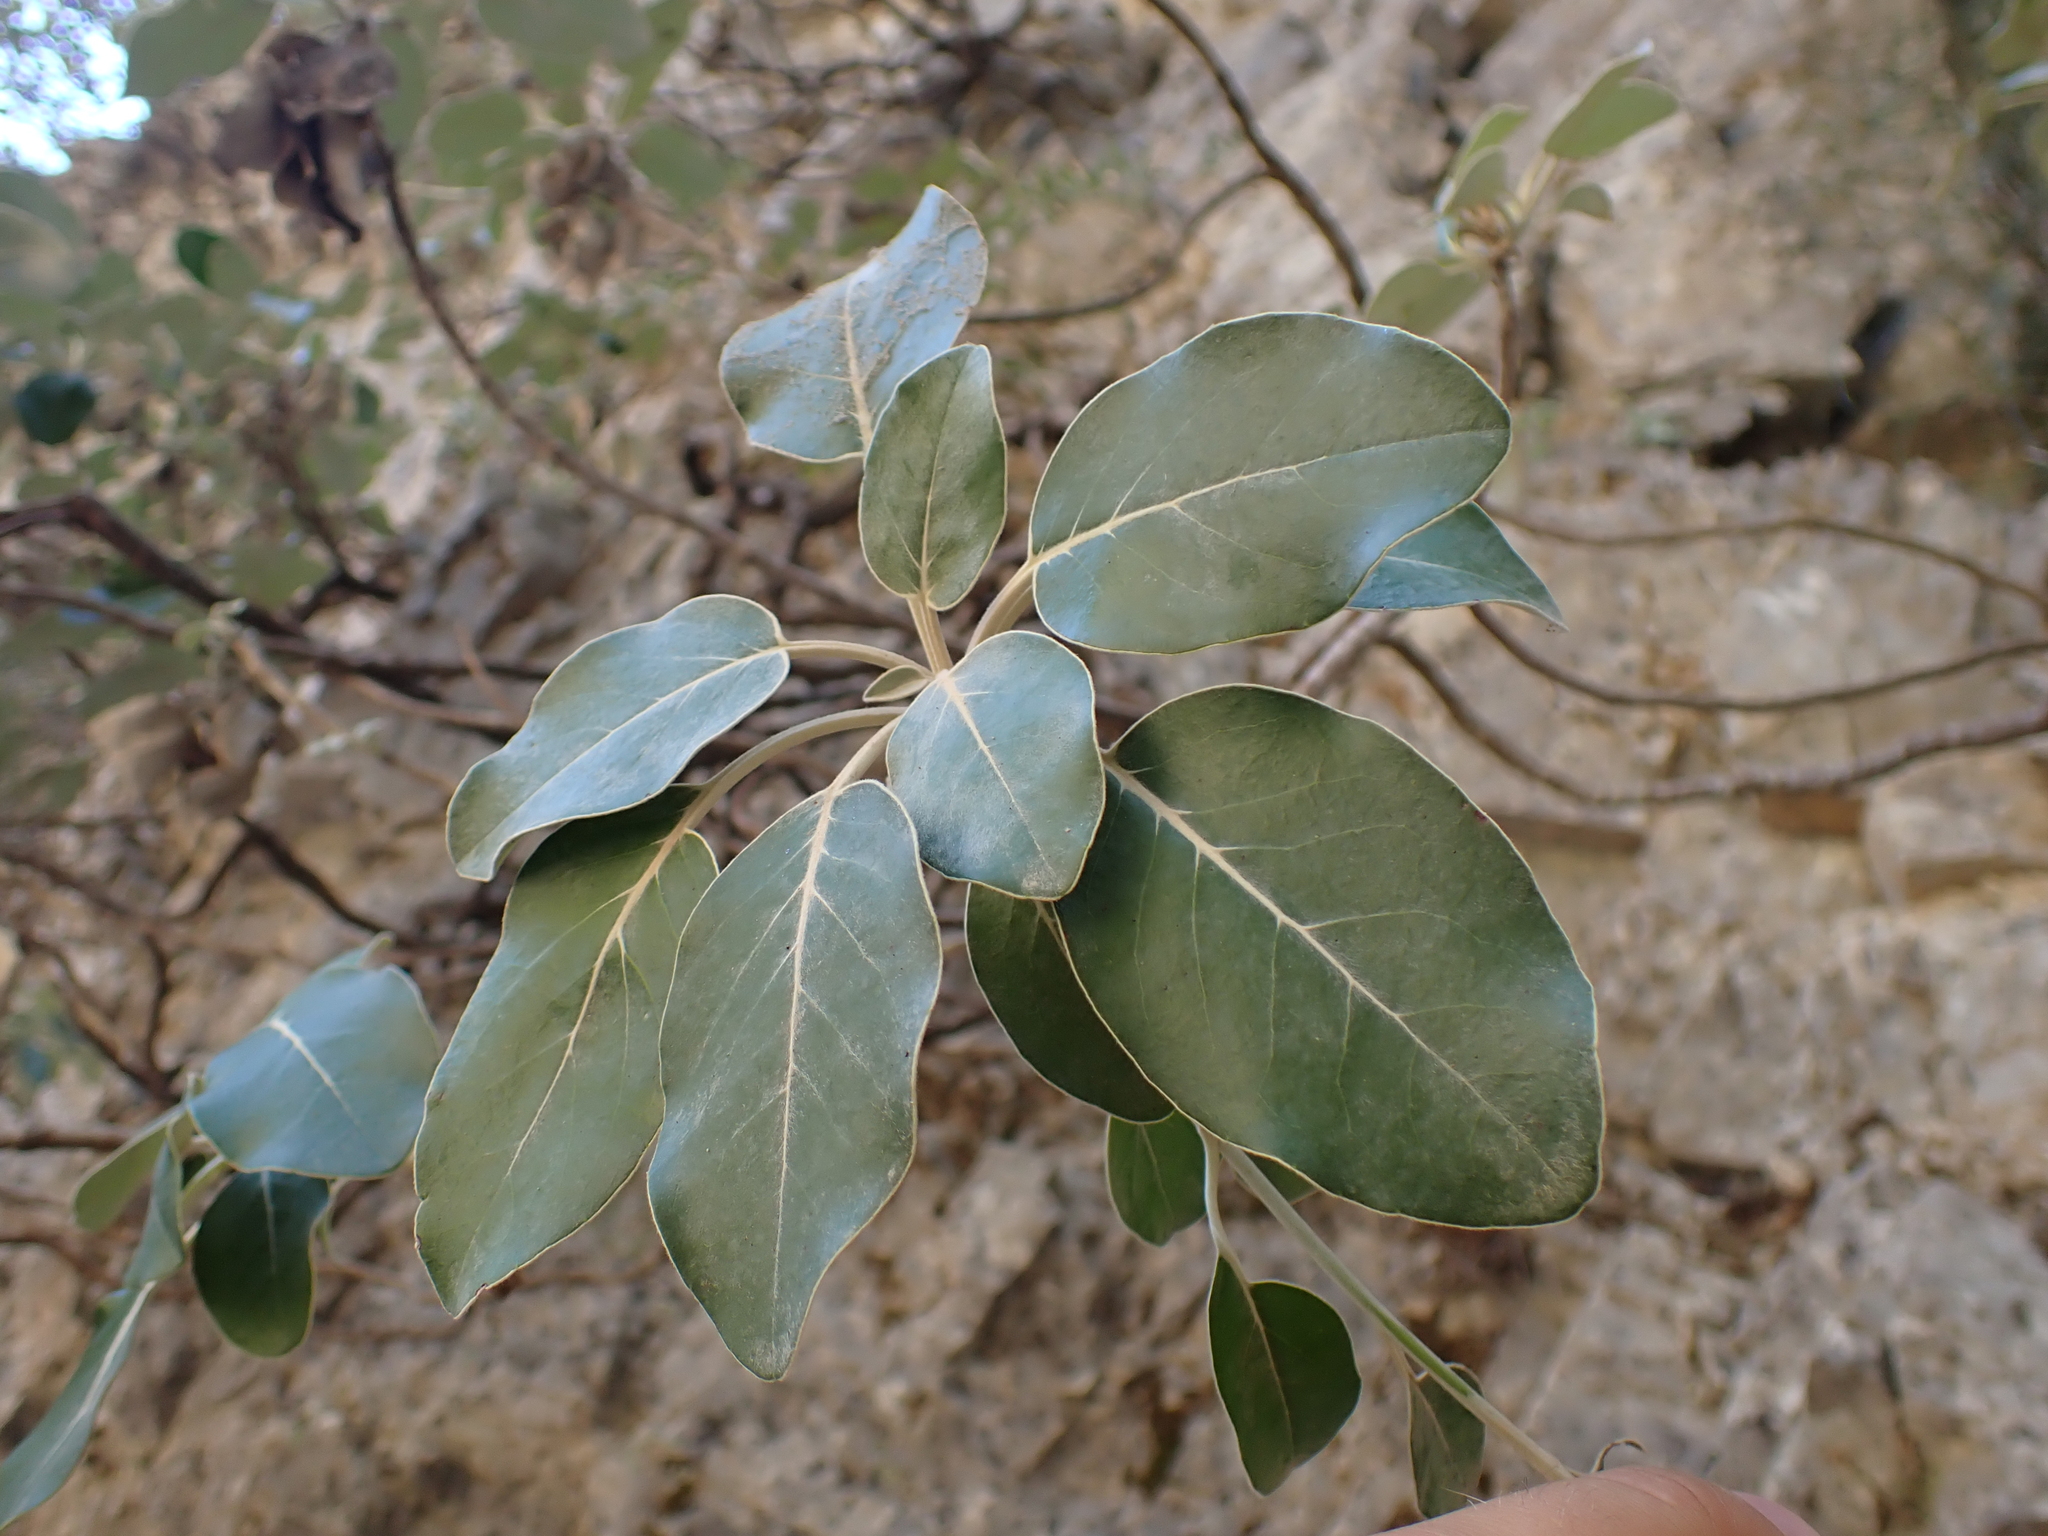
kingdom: Plantae
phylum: Tracheophyta
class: Magnoliopsida
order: Asterales
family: Asteraceae
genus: Staehelina
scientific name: Staehelina petiolata
